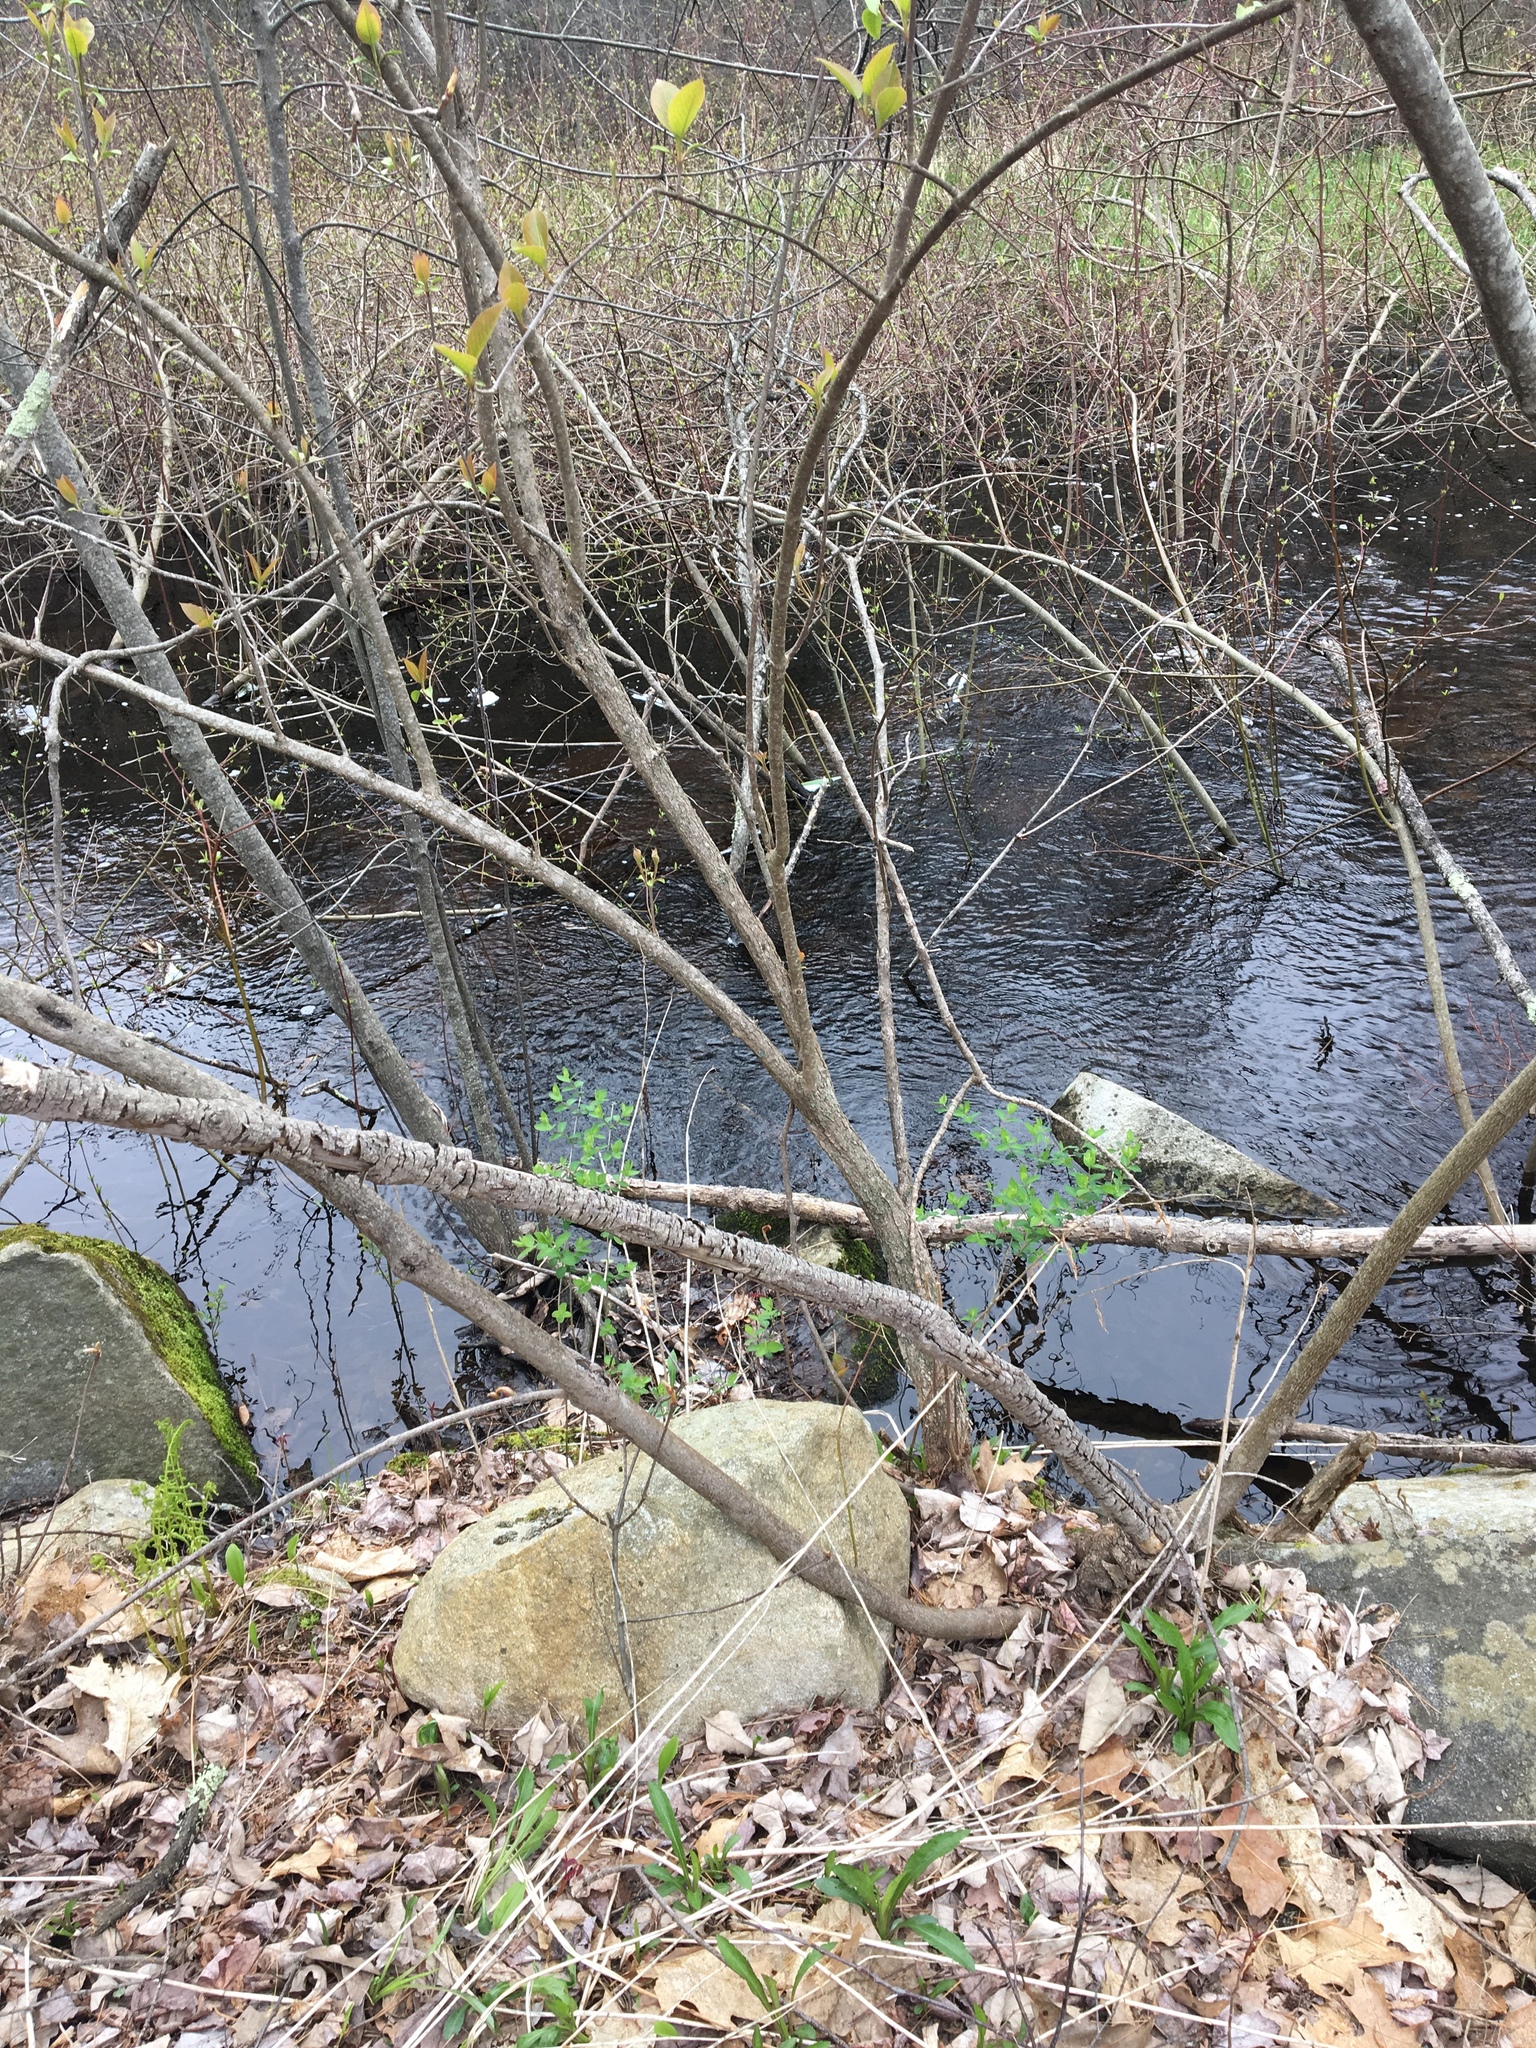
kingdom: Plantae
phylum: Tracheophyta
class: Magnoliopsida
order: Dipsacales
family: Viburnaceae
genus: Viburnum
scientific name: Viburnum lentago
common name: Black haw
